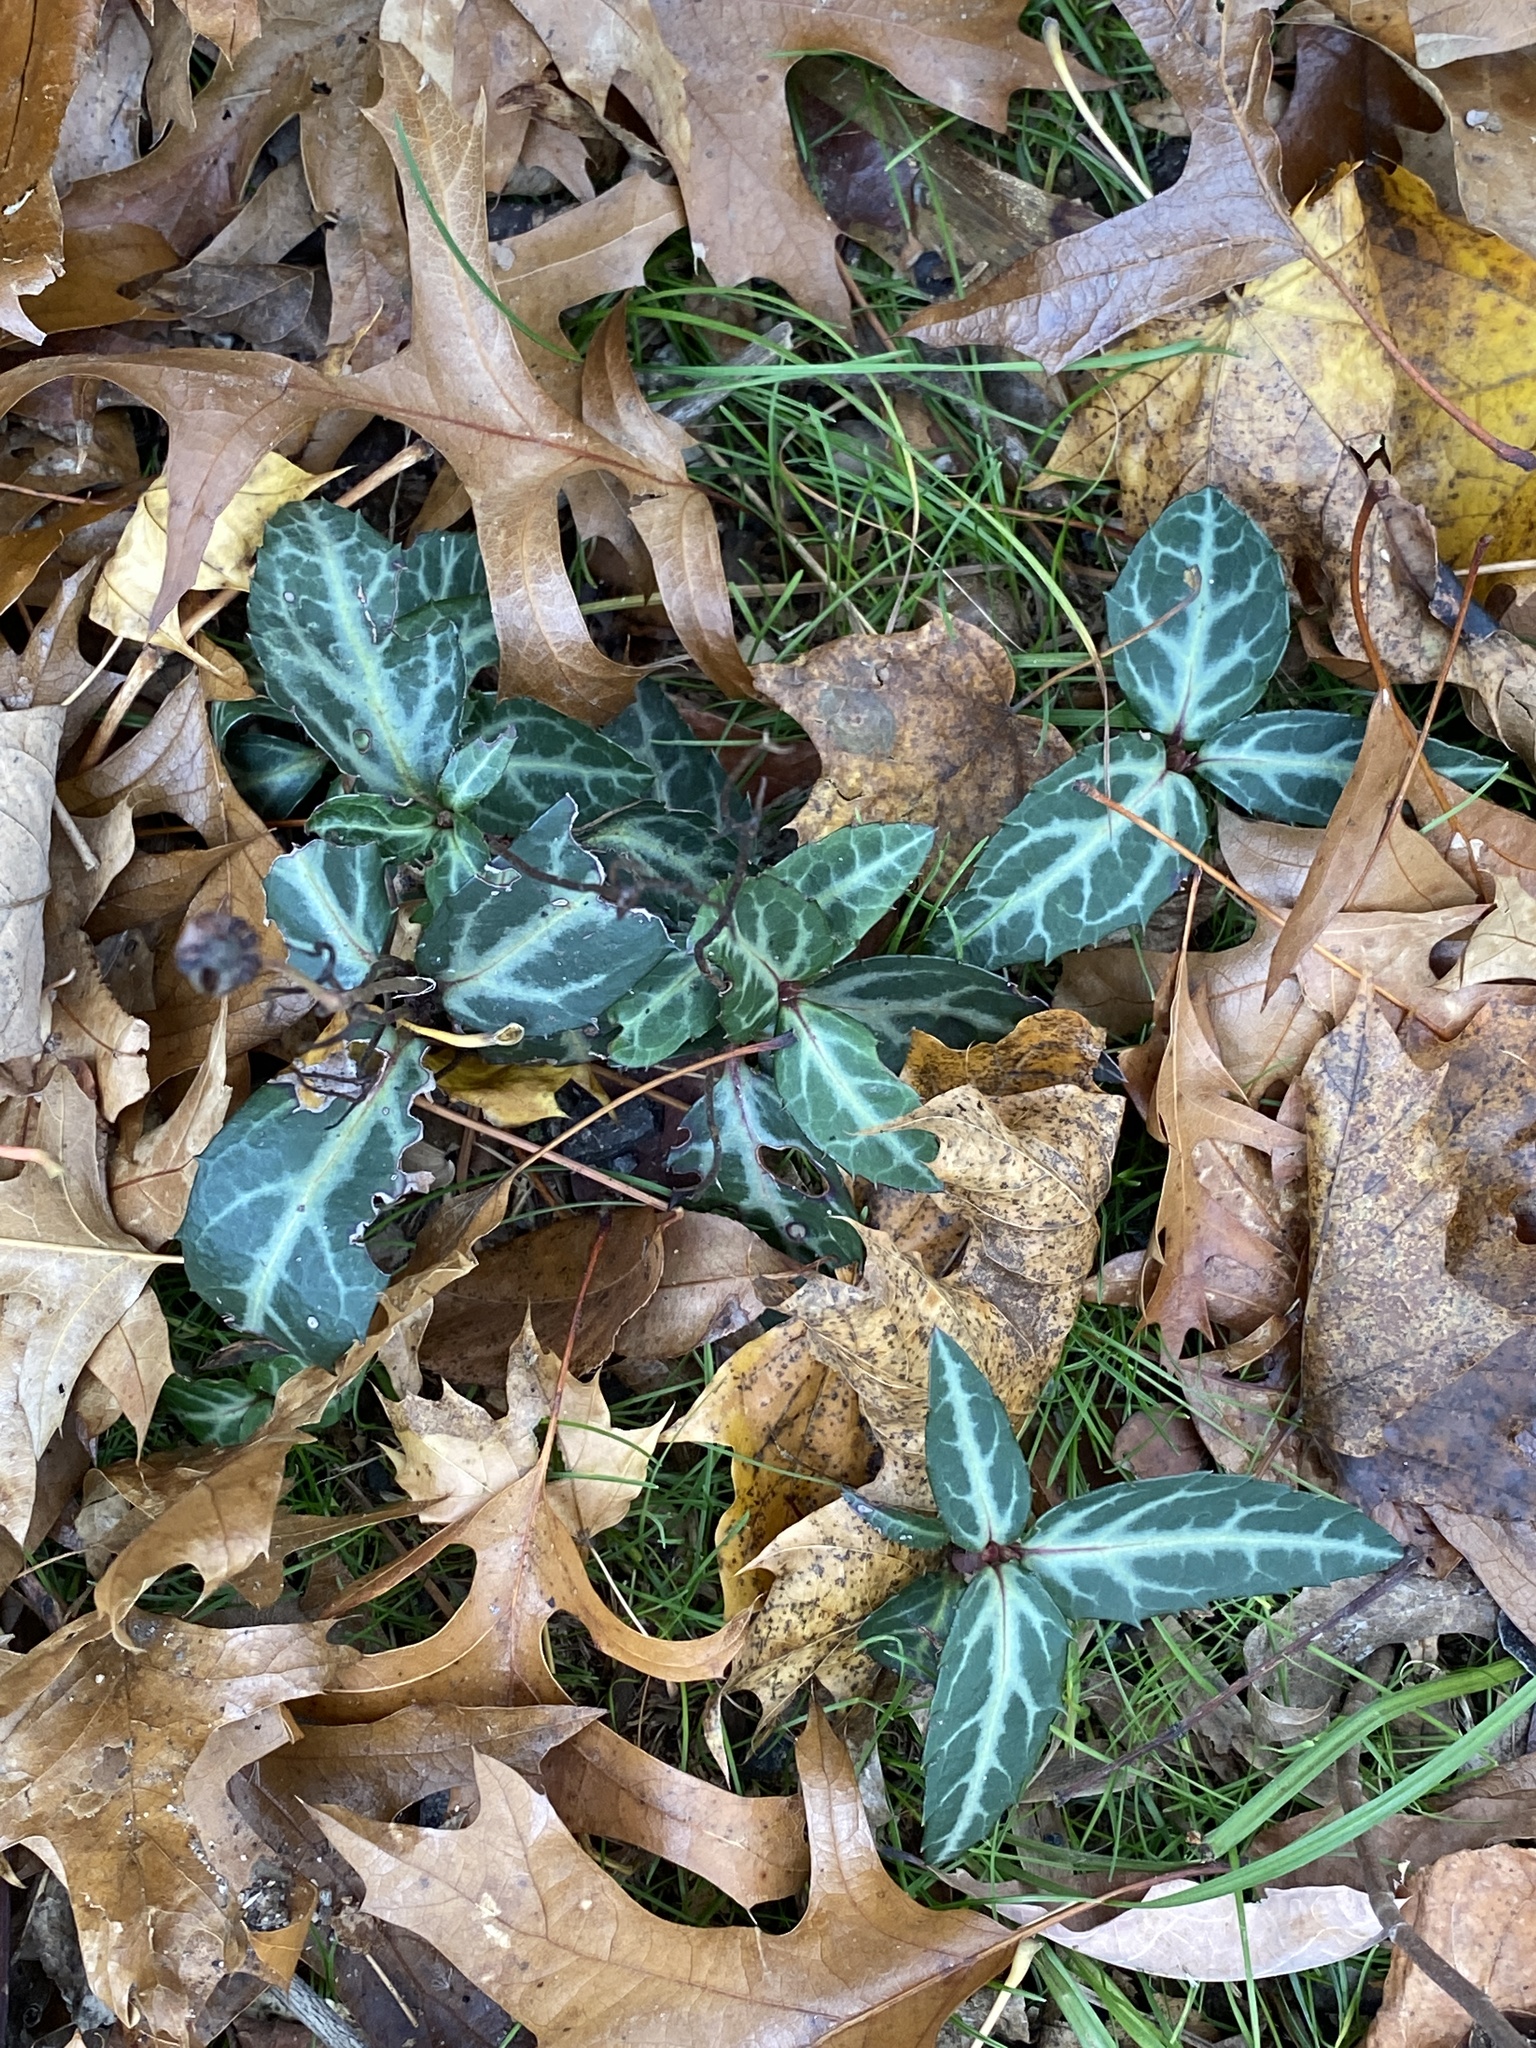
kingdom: Plantae
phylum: Tracheophyta
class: Magnoliopsida
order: Ericales
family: Ericaceae
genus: Chimaphila
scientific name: Chimaphila maculata
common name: Spotted pipsissewa
